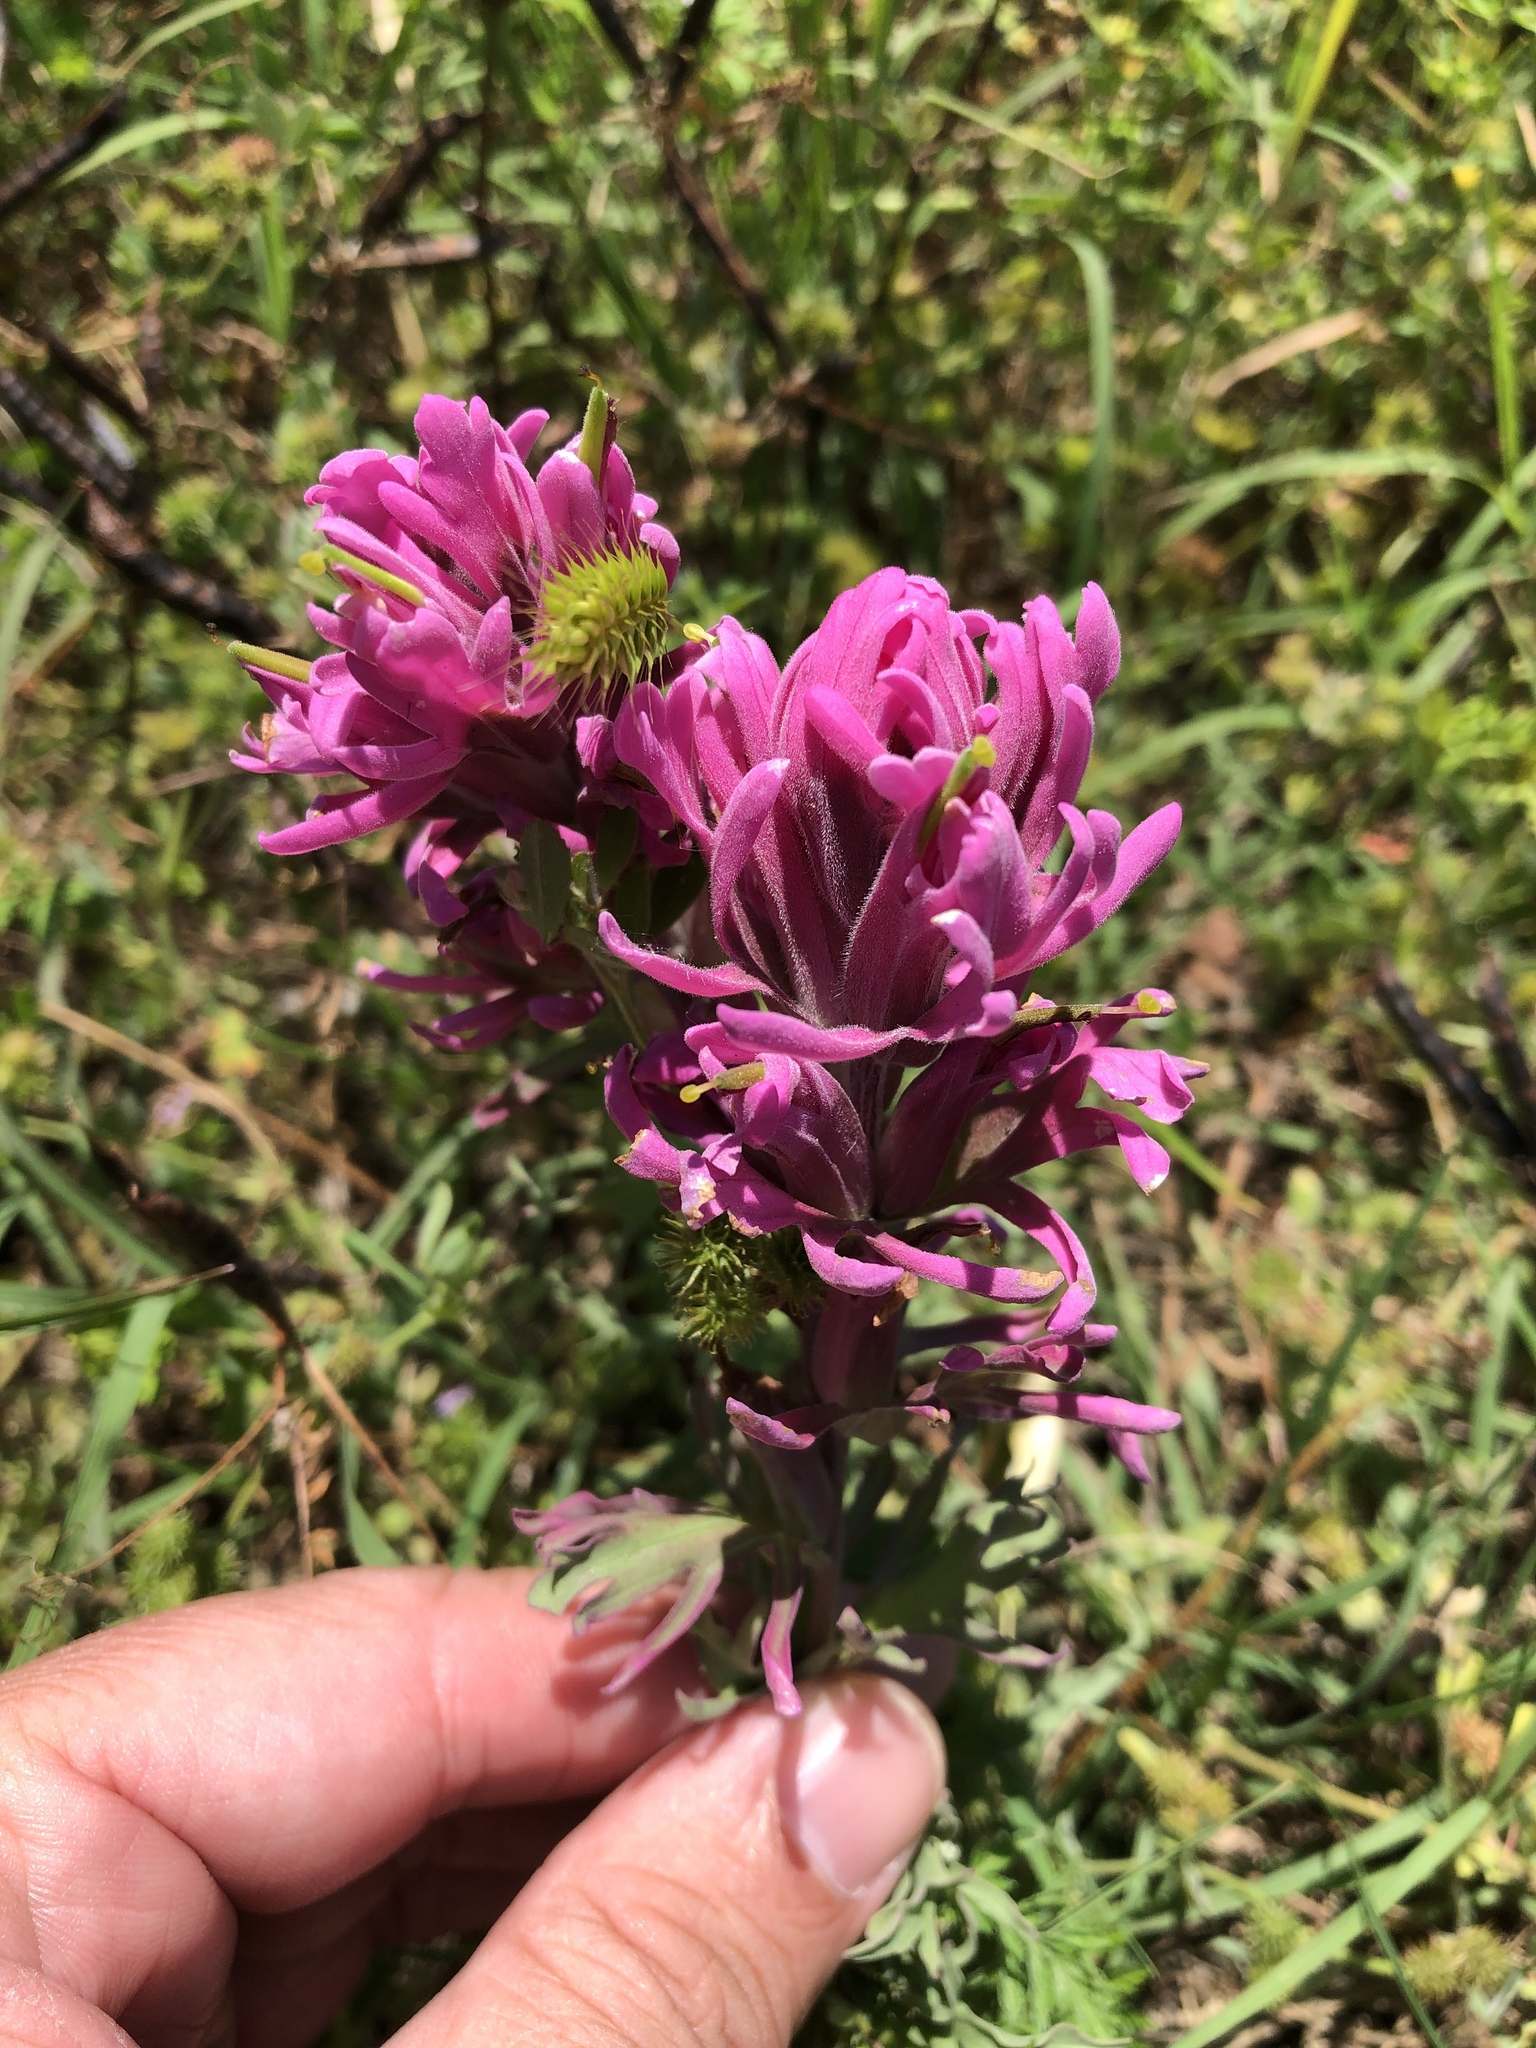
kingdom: Plantae
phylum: Tracheophyta
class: Magnoliopsida
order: Lamiales
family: Orobanchaceae
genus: Castilleja
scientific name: Castilleja purpurea
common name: Plains paintbrush
